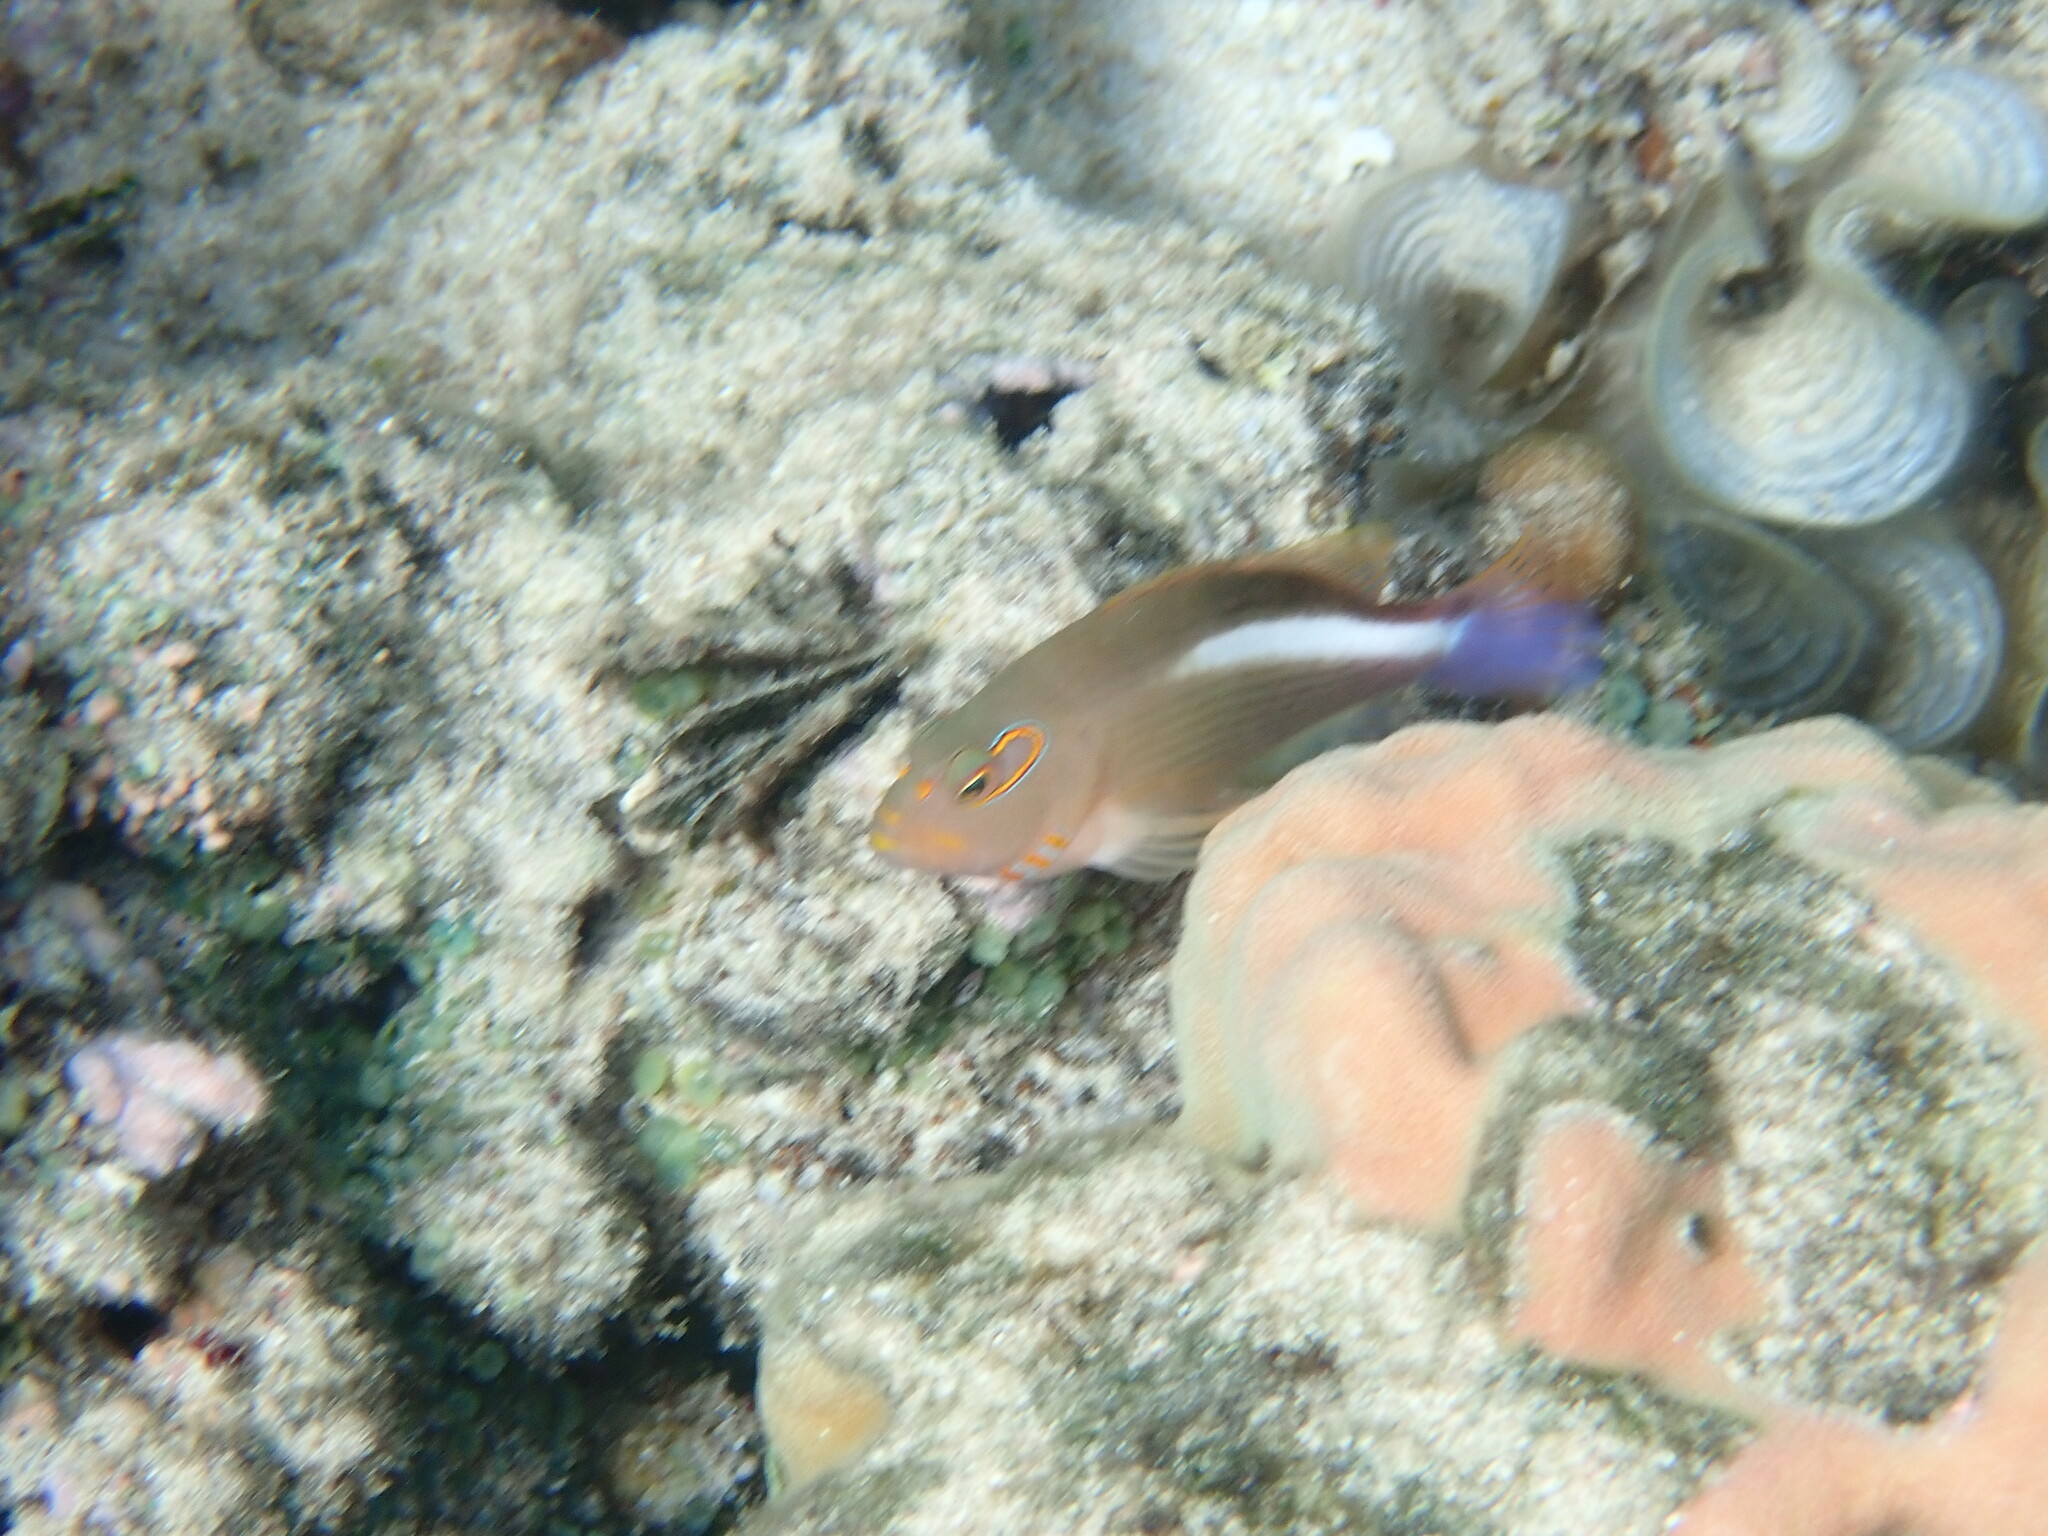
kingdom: Animalia
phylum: Chordata
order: Perciformes
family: Cirrhitidae
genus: Paracirrhites
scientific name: Paracirrhites arcatus
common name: Arc-eye hawkfish
